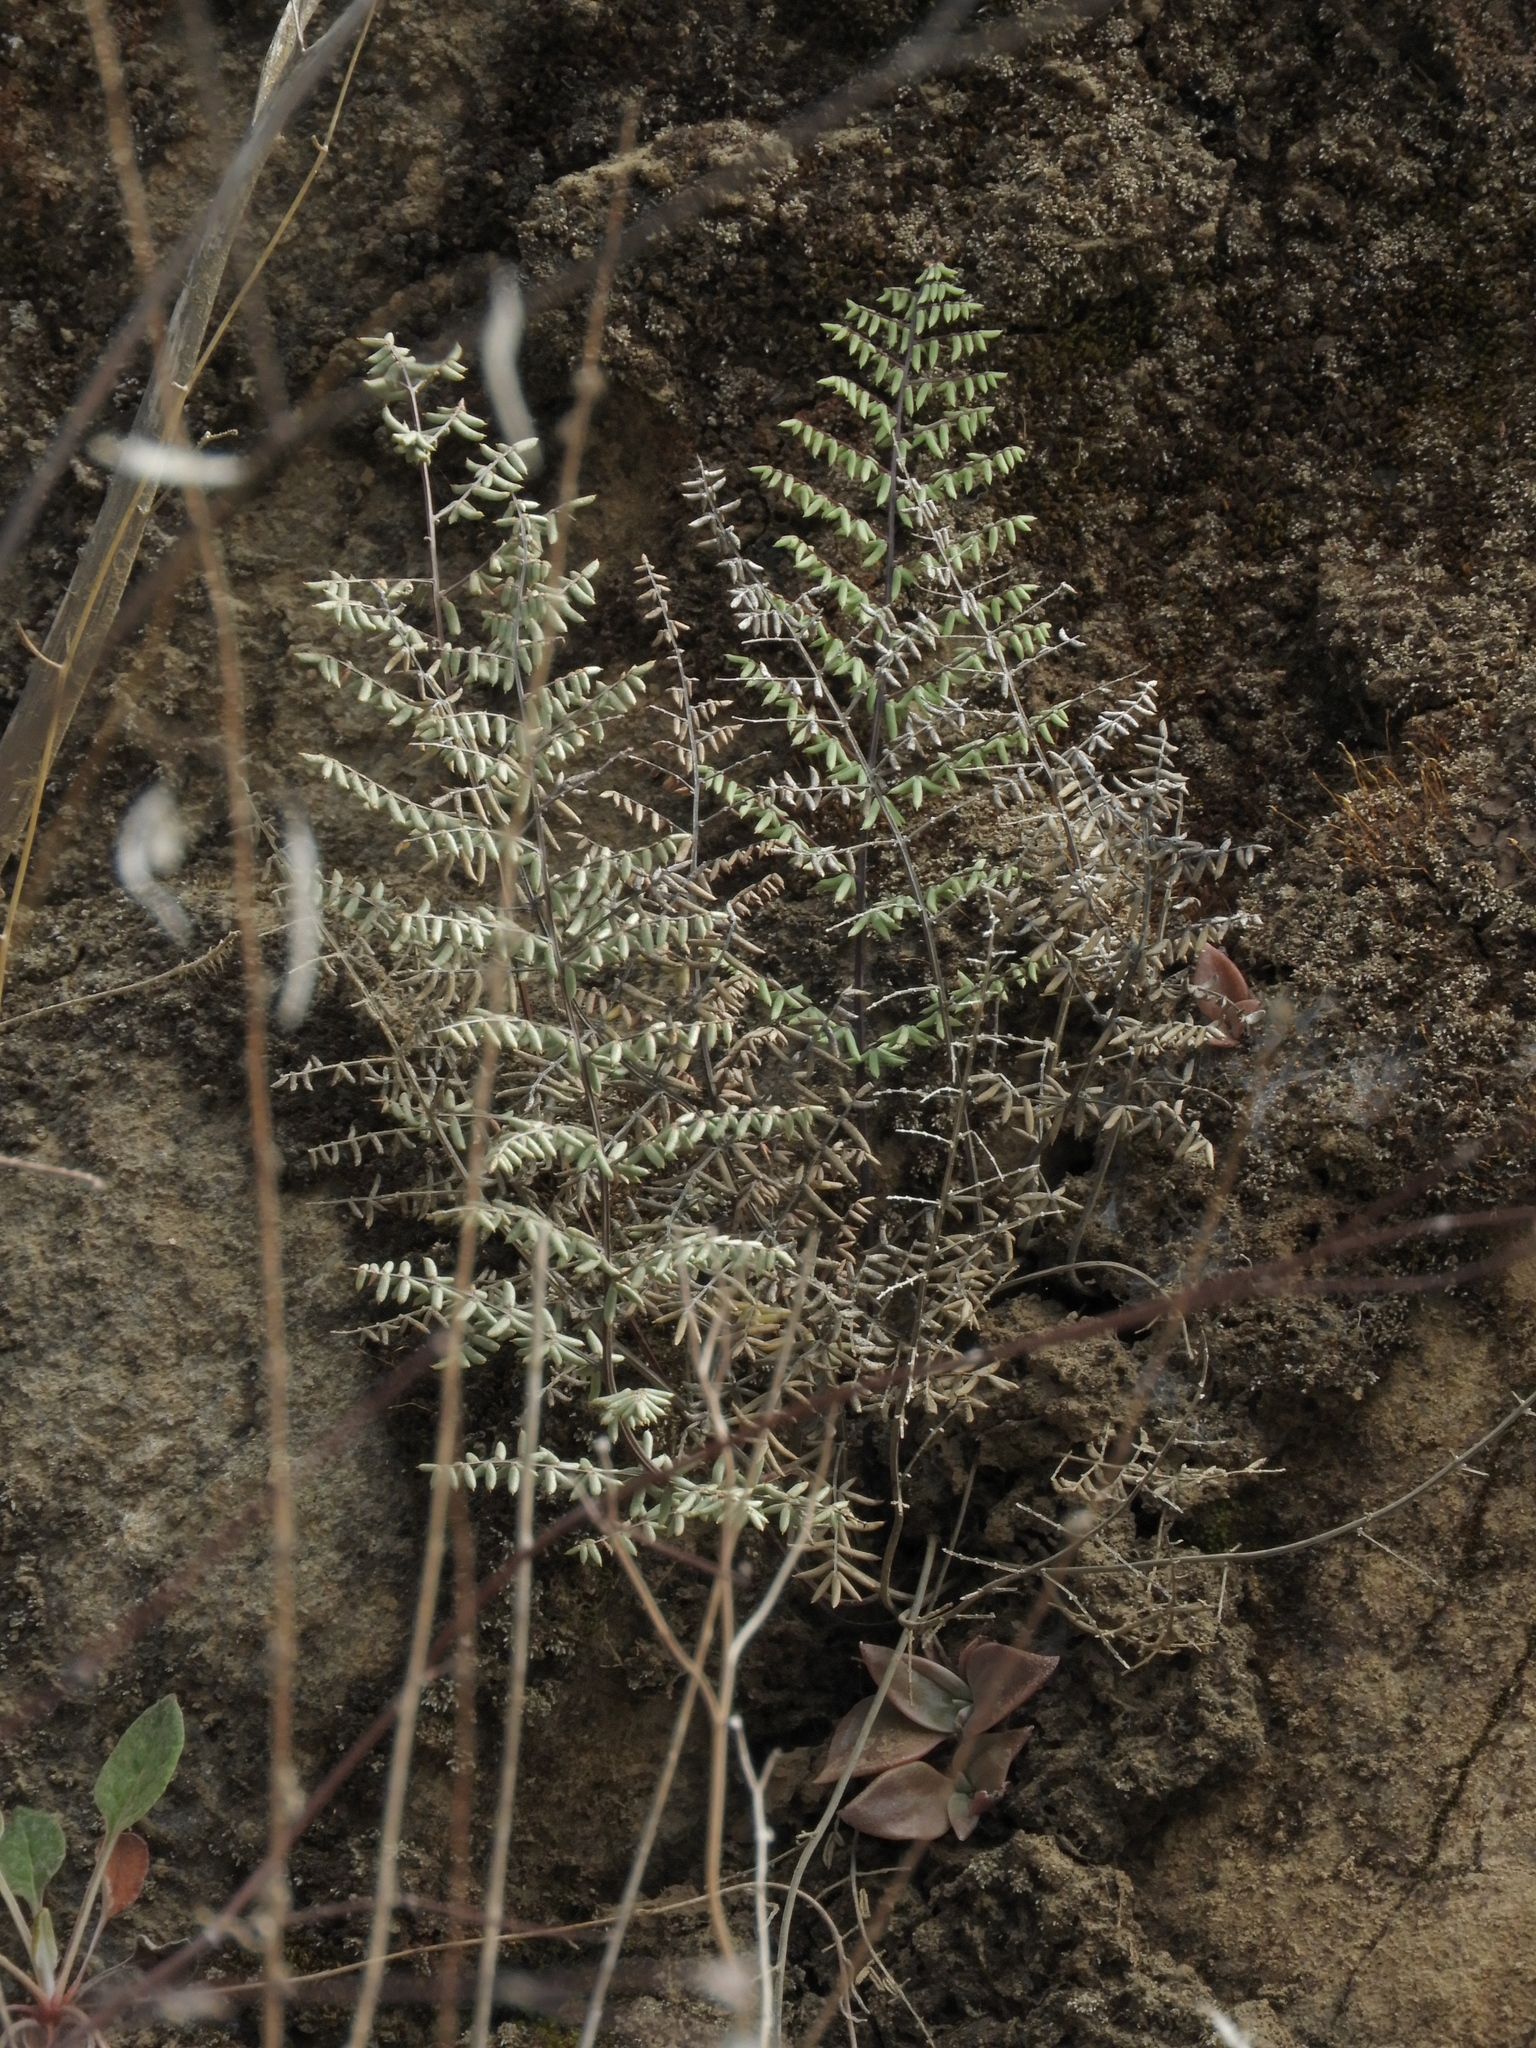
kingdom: Plantae
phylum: Tracheophyta
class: Polypodiopsida
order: Polypodiales
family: Pteridaceae
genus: Pellaea
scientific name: Pellaea mucronata
